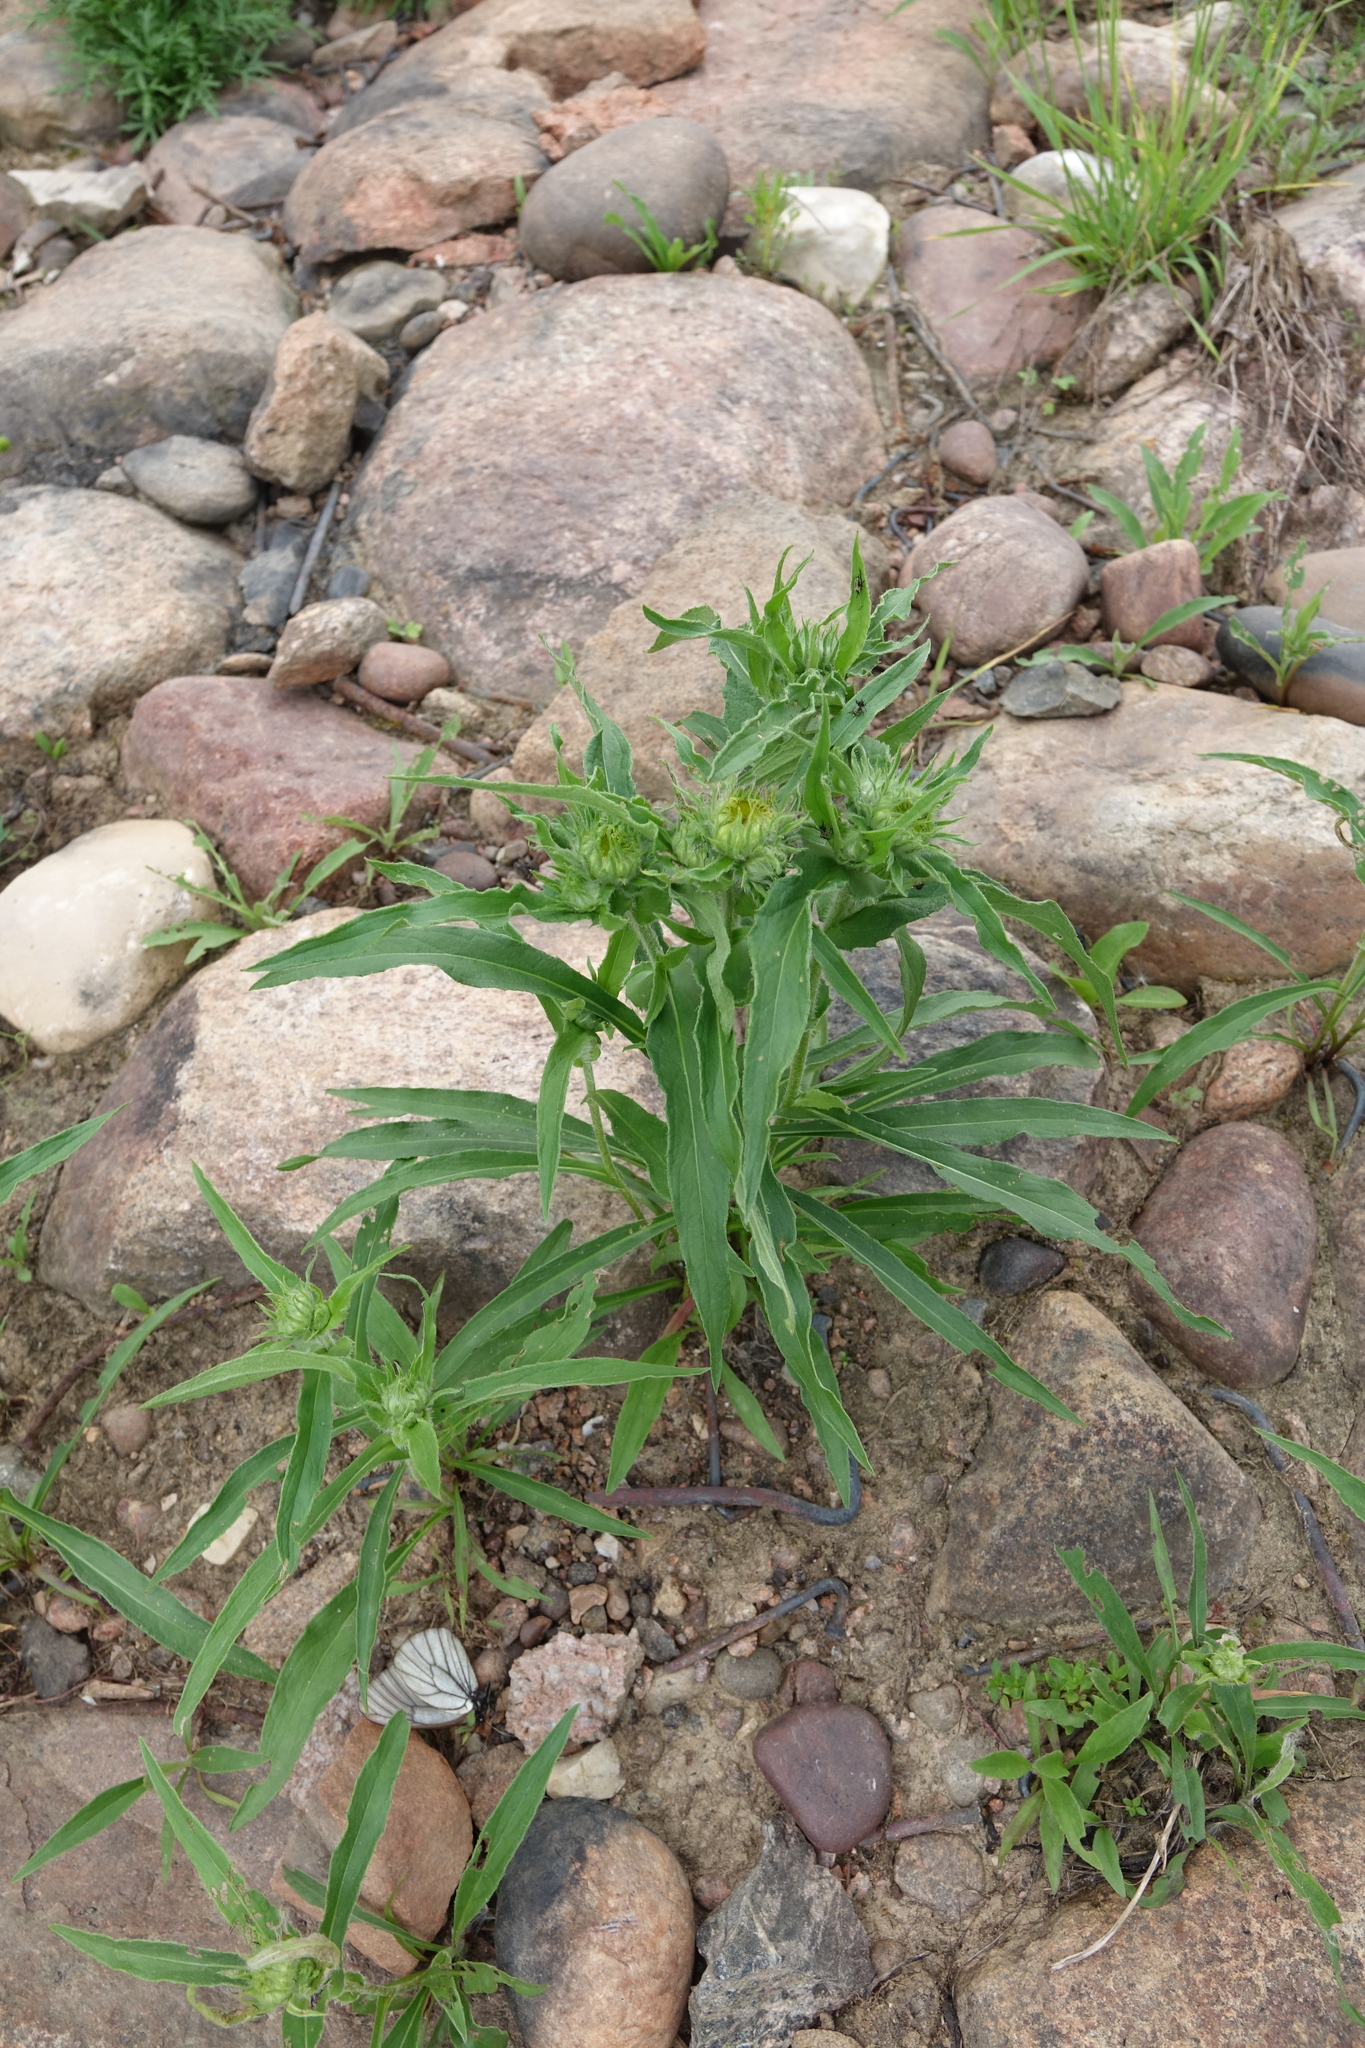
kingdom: Plantae
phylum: Tracheophyta
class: Magnoliopsida
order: Asterales
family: Asteraceae
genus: Pentanema
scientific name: Pentanema britannicum
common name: British elecampane
